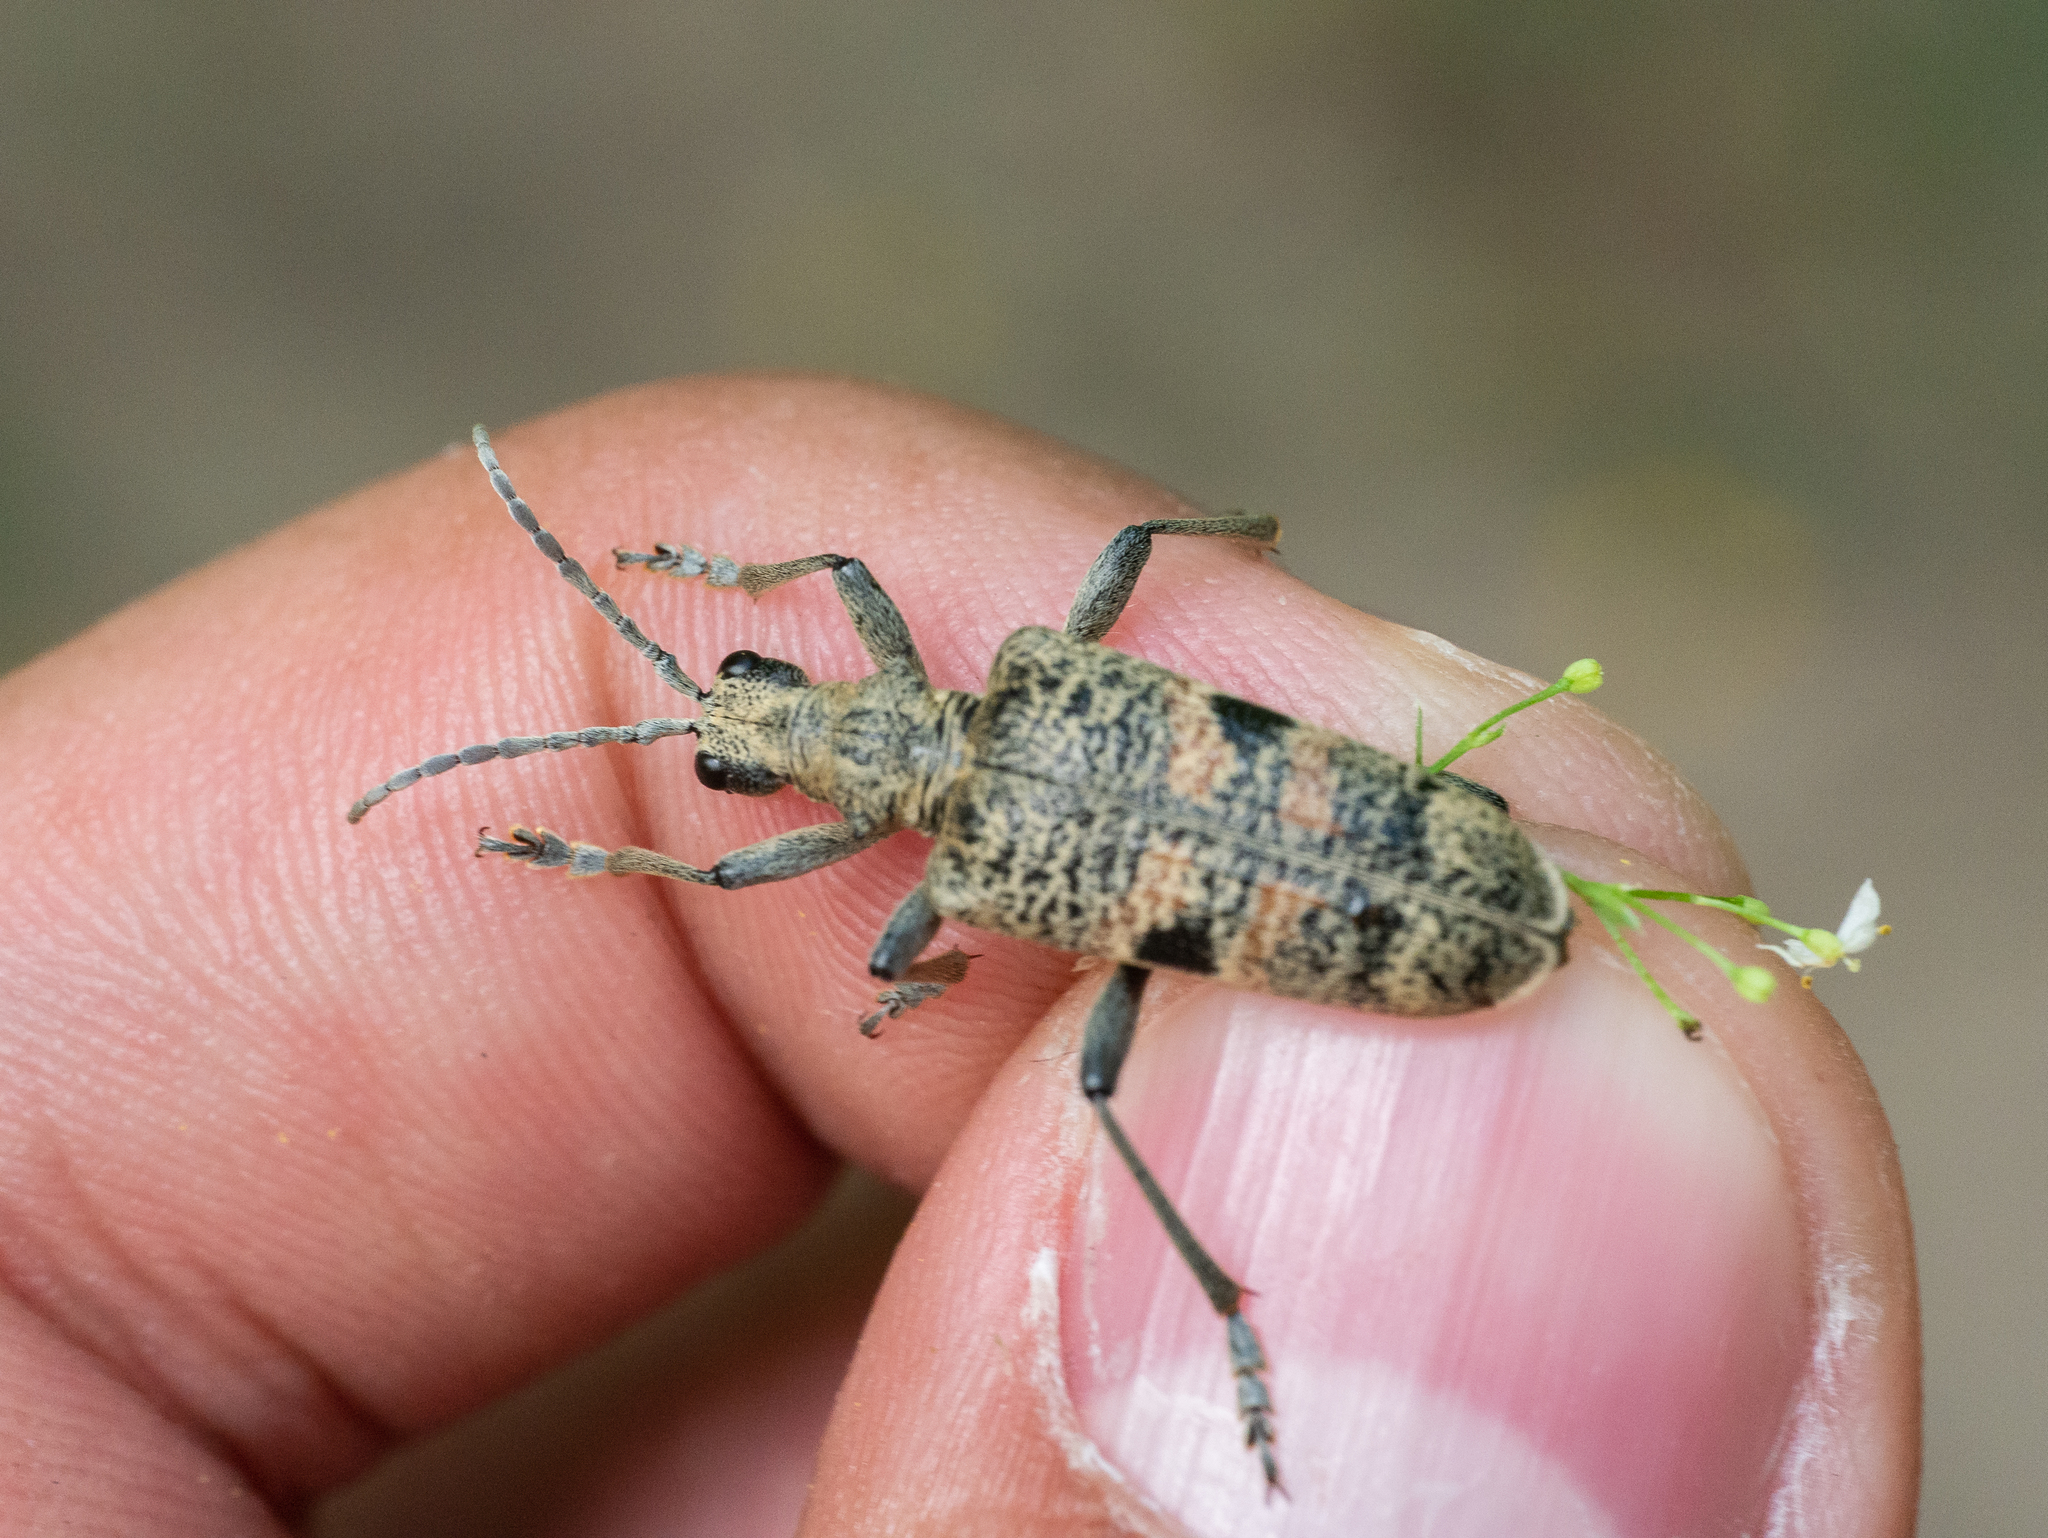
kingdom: Animalia
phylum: Arthropoda
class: Insecta
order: Coleoptera
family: Cerambycidae
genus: Rhagium
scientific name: Rhagium mordax
